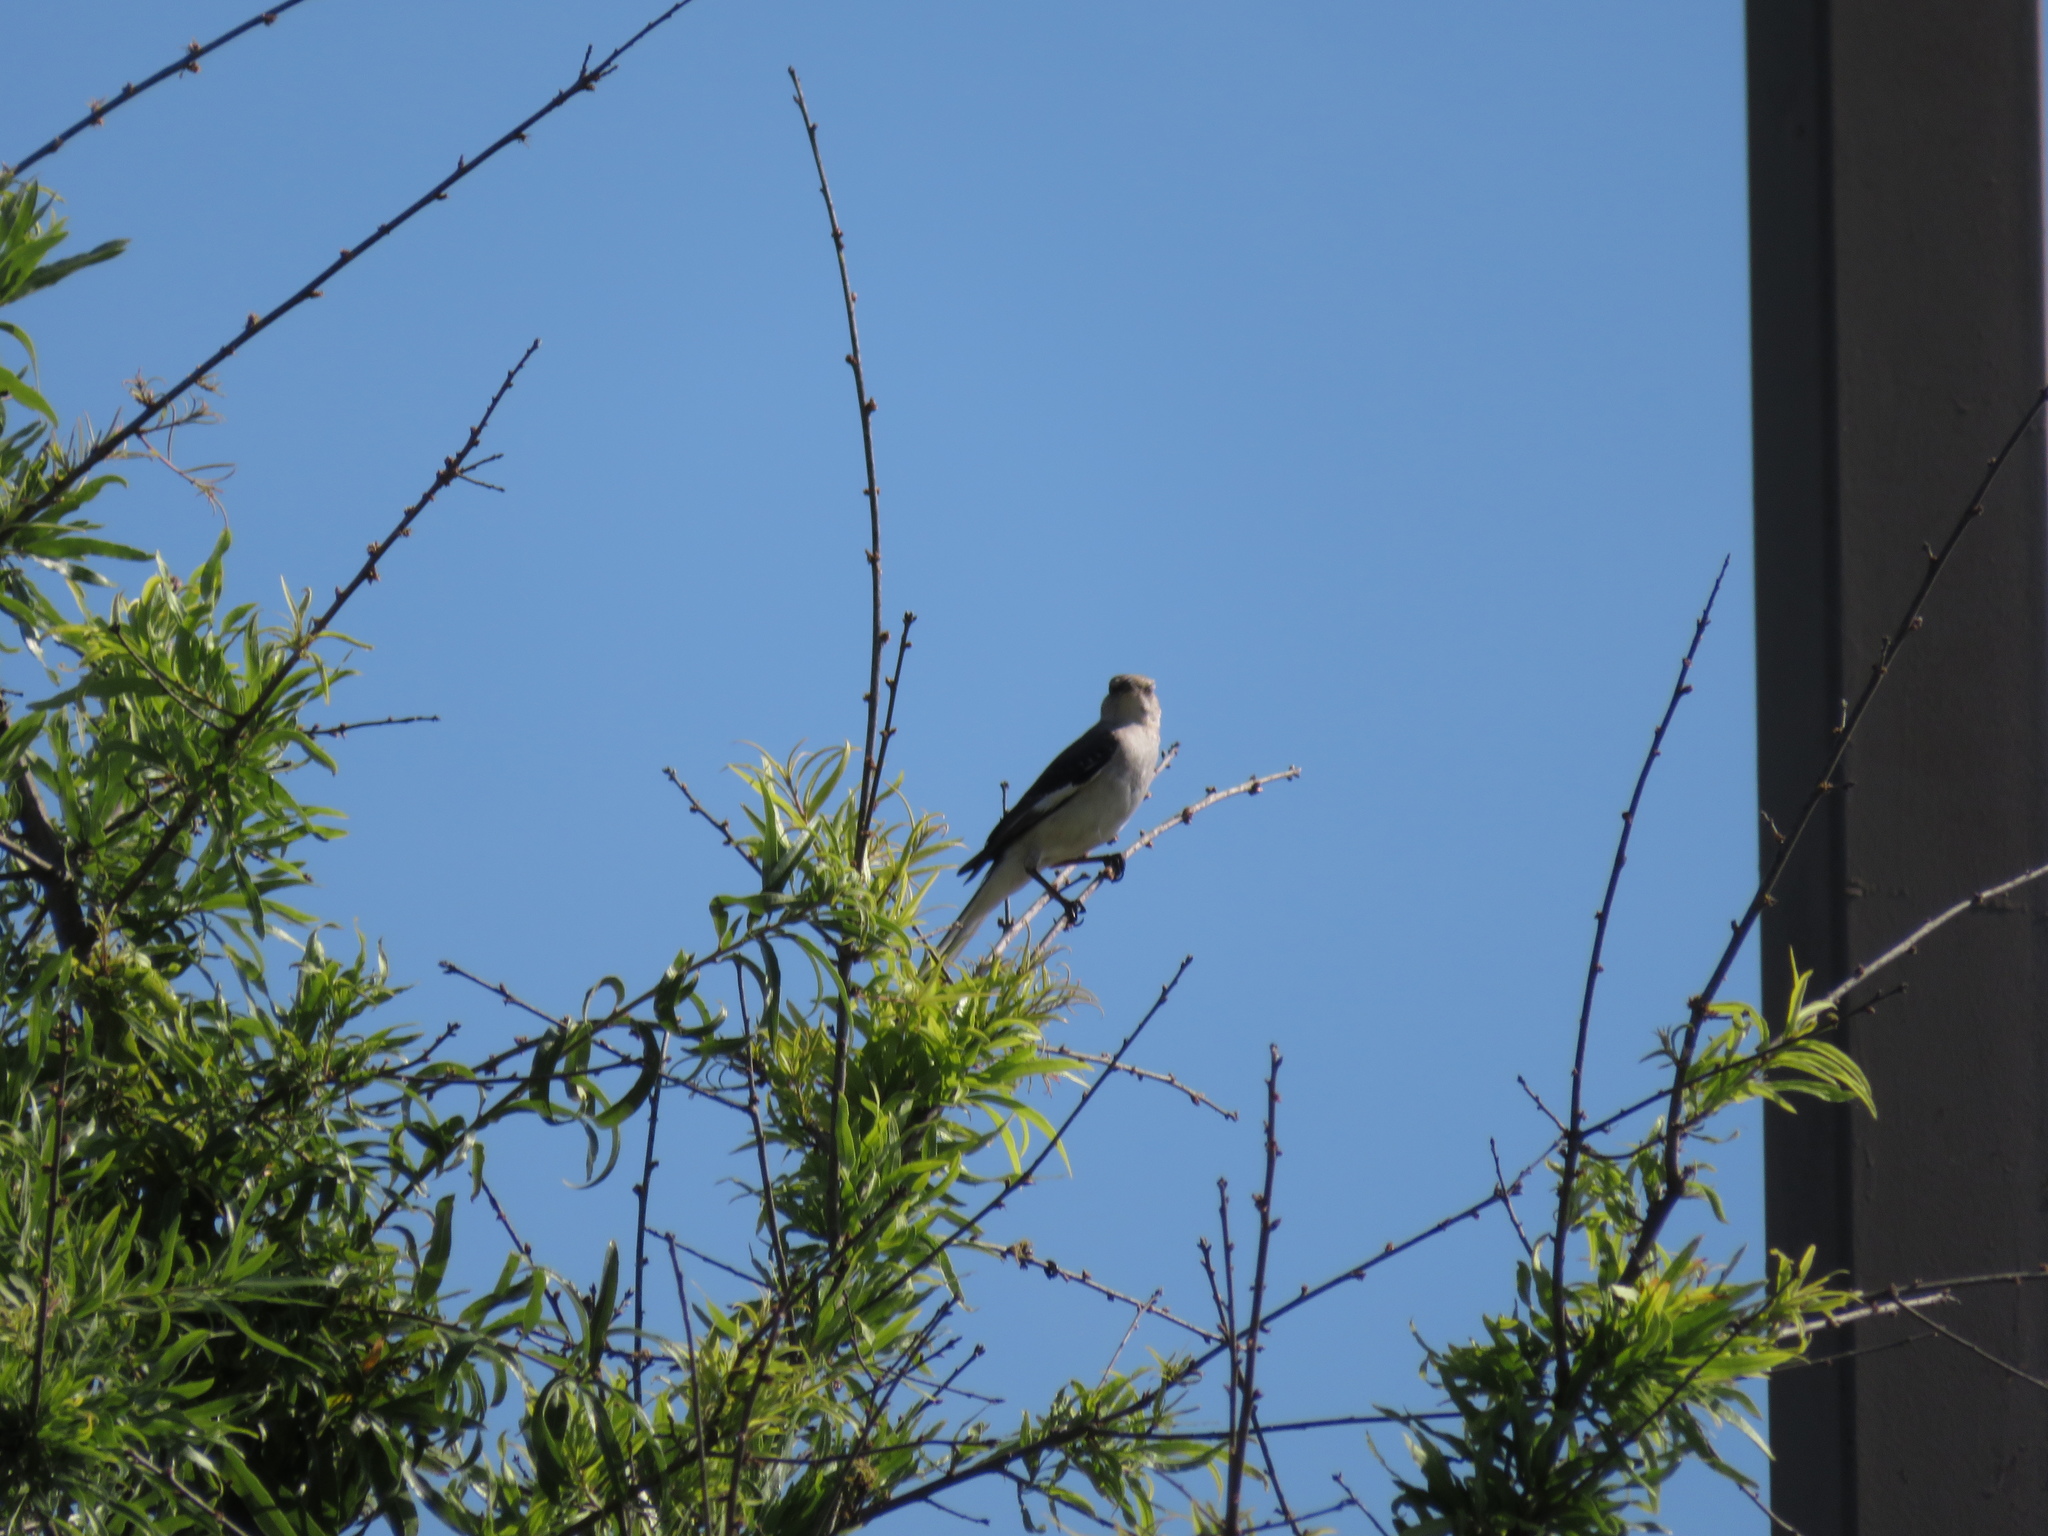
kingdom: Animalia
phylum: Chordata
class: Aves
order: Passeriformes
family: Mimidae
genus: Mimus
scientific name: Mimus polyglottos
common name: Northern mockingbird
